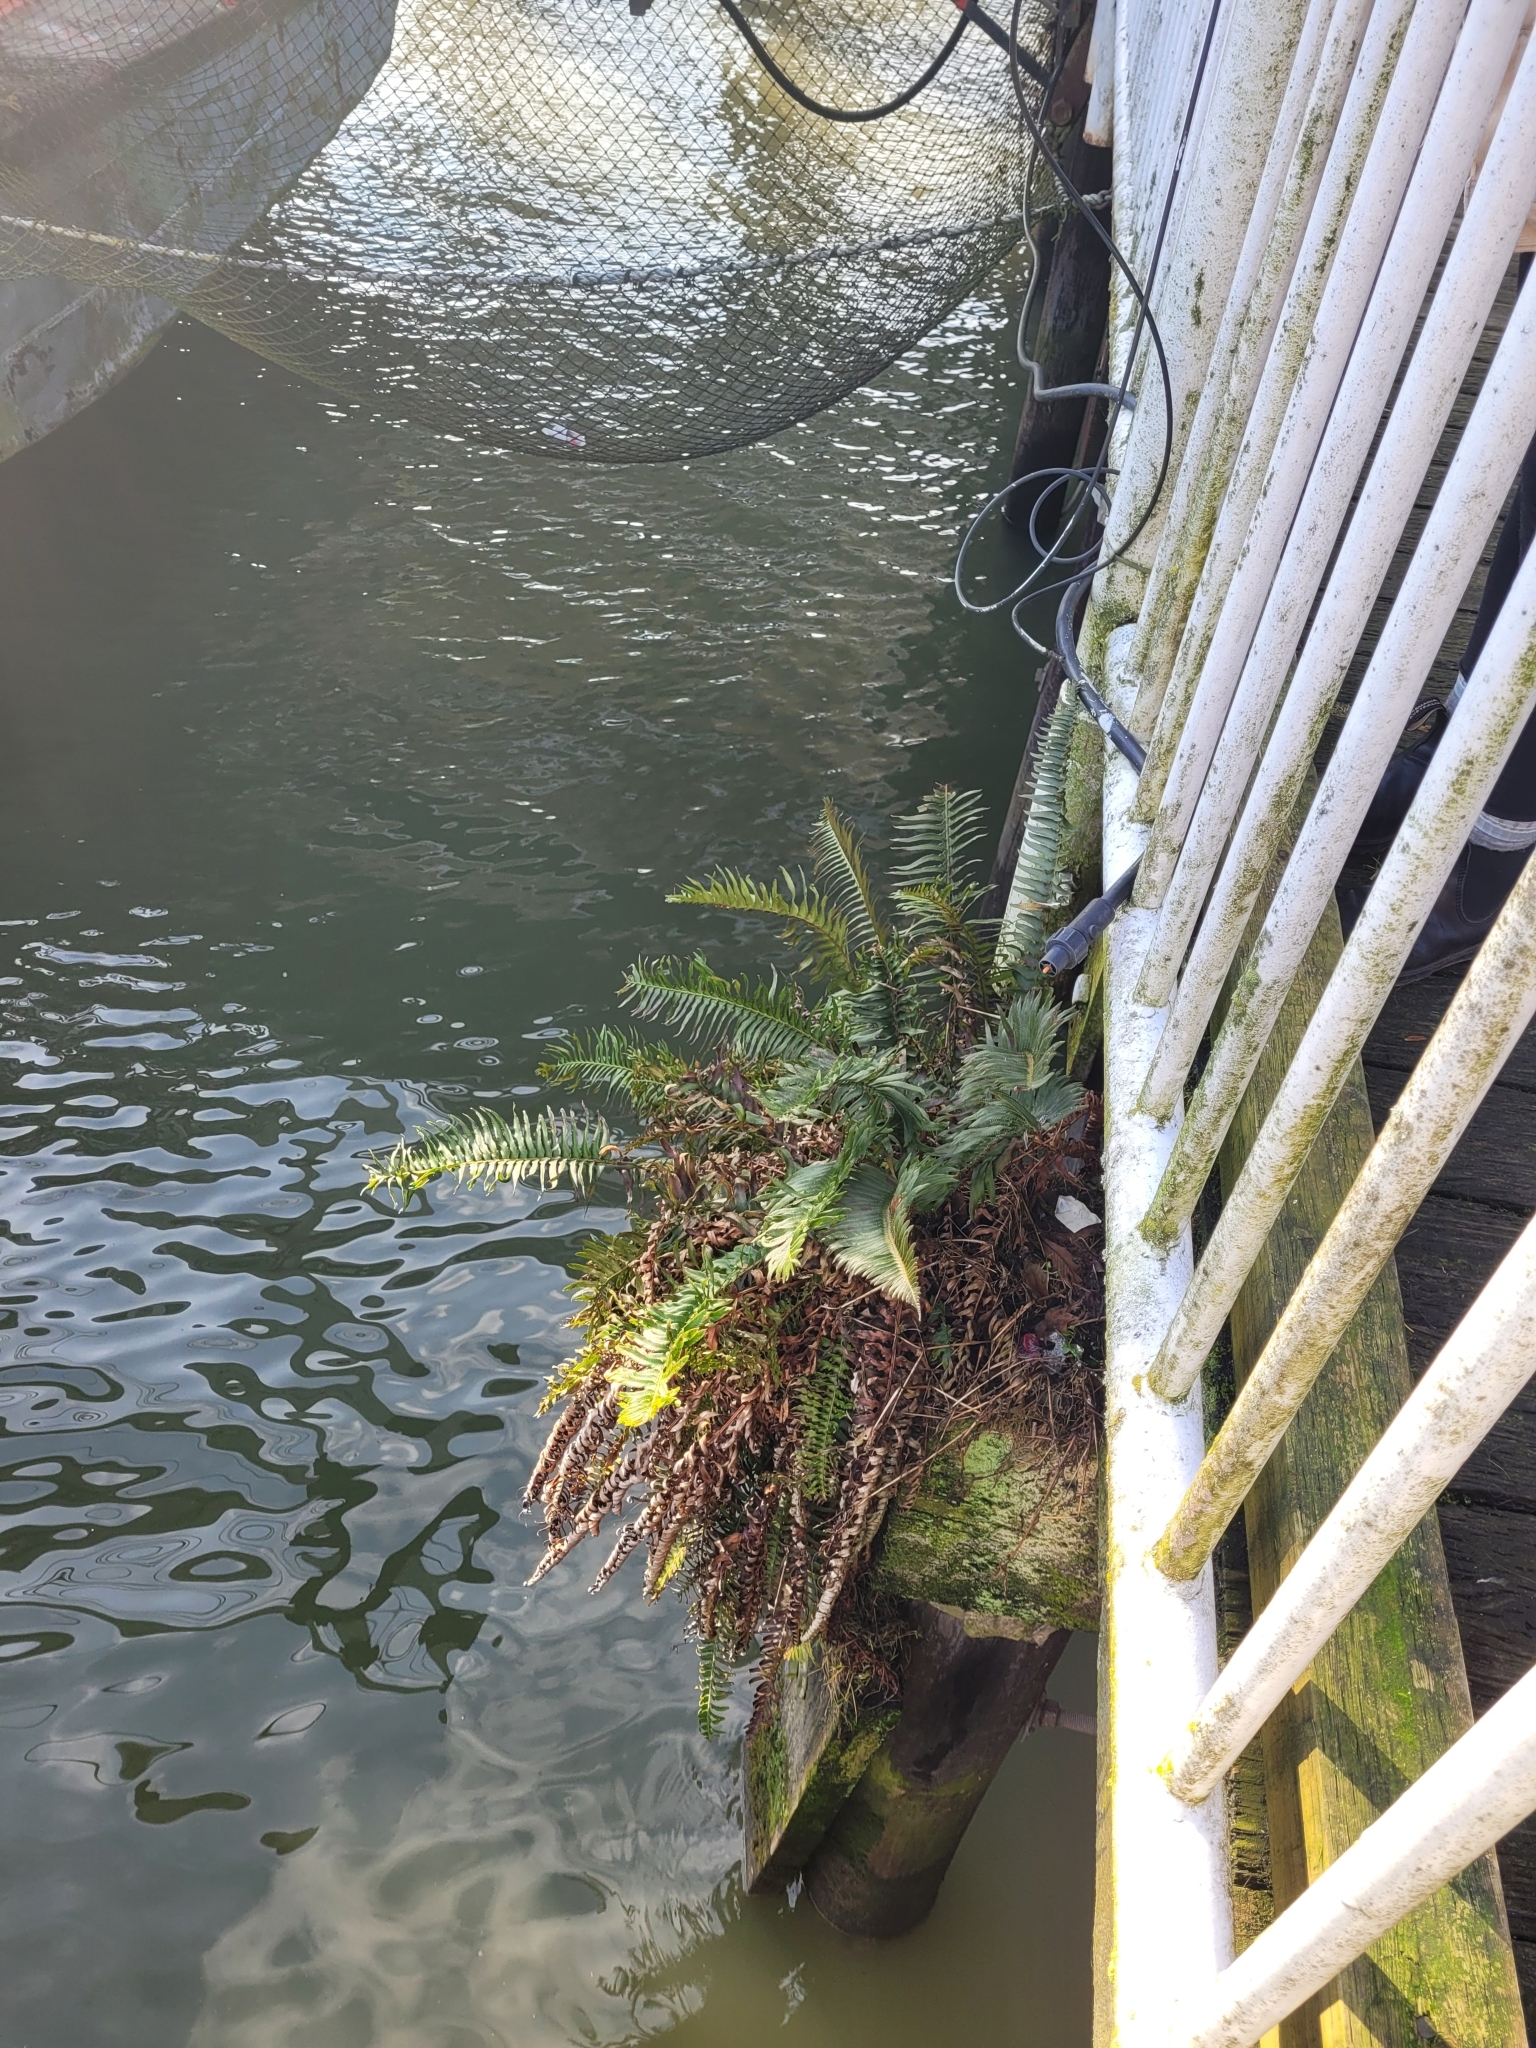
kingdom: Plantae
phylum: Tracheophyta
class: Polypodiopsida
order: Polypodiales
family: Dryopteridaceae
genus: Polystichum
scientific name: Polystichum munitum
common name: Western sword-fern
